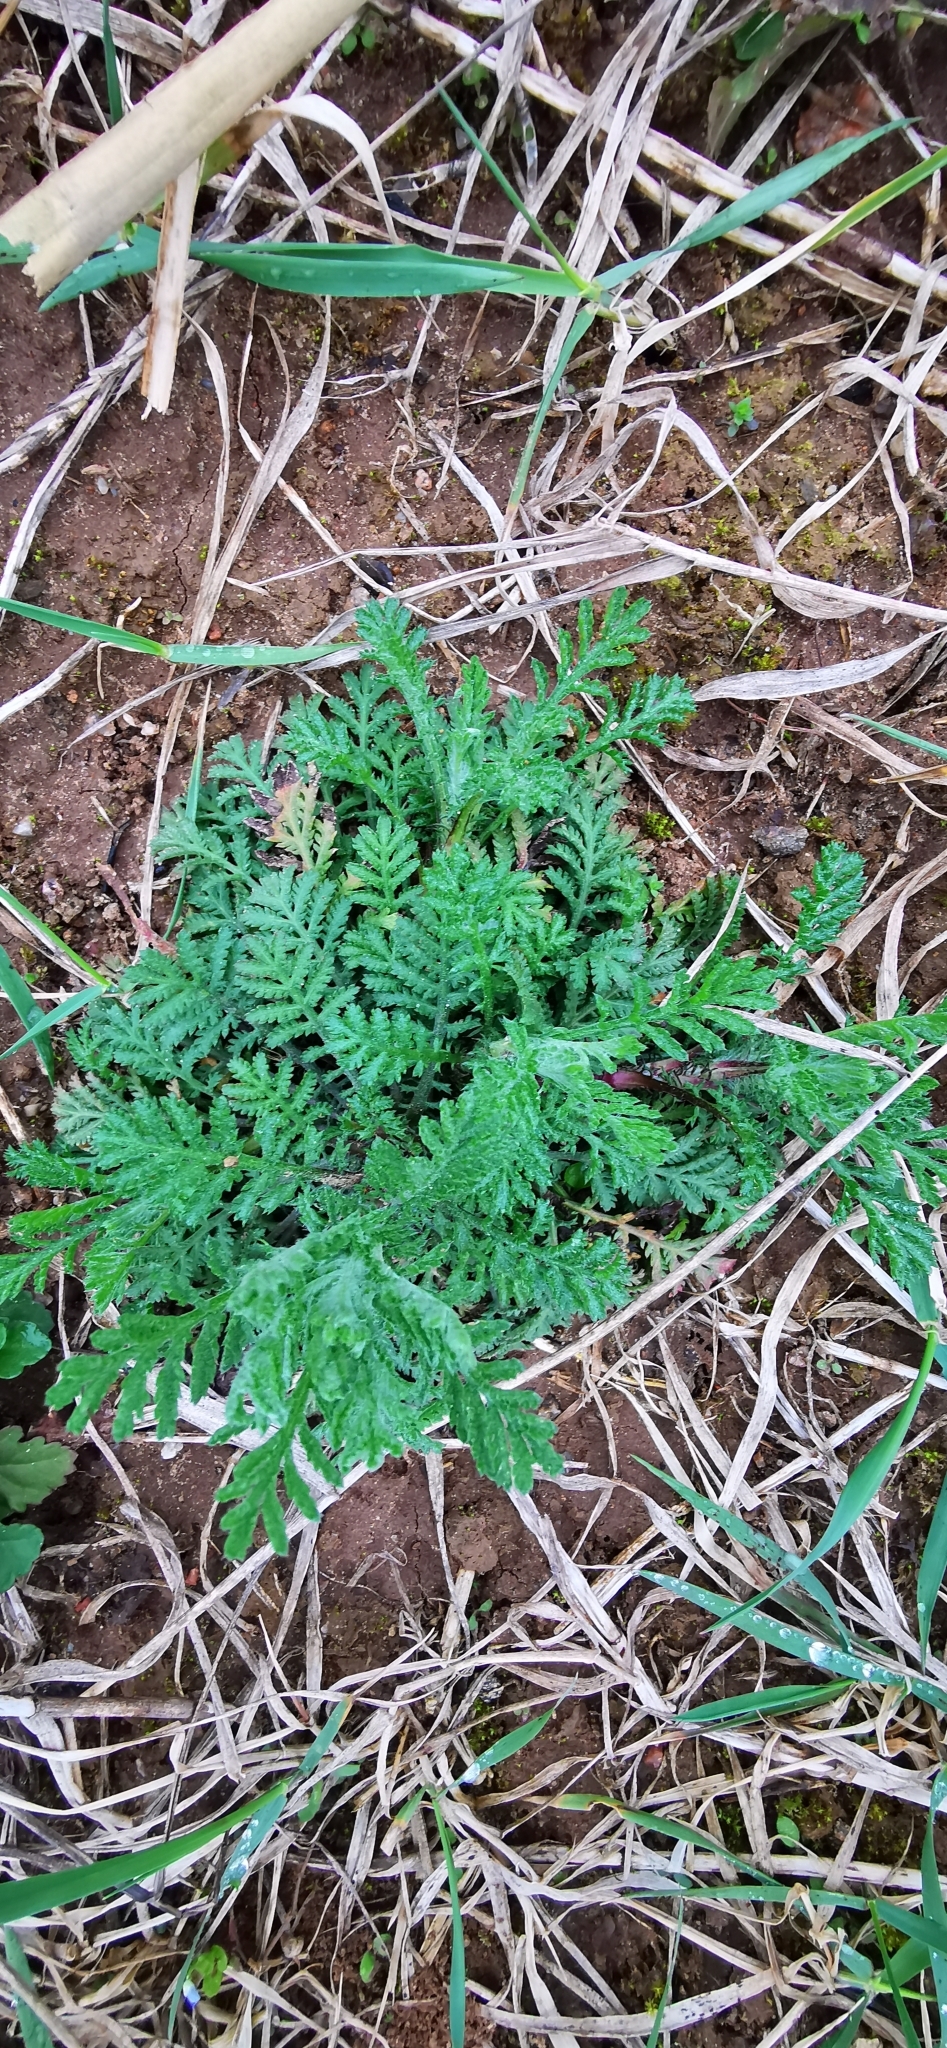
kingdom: Plantae
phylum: Tracheophyta
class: Magnoliopsida
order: Asterales
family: Asteraceae
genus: Cota
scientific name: Cota tinctoria
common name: Golden chamomile
